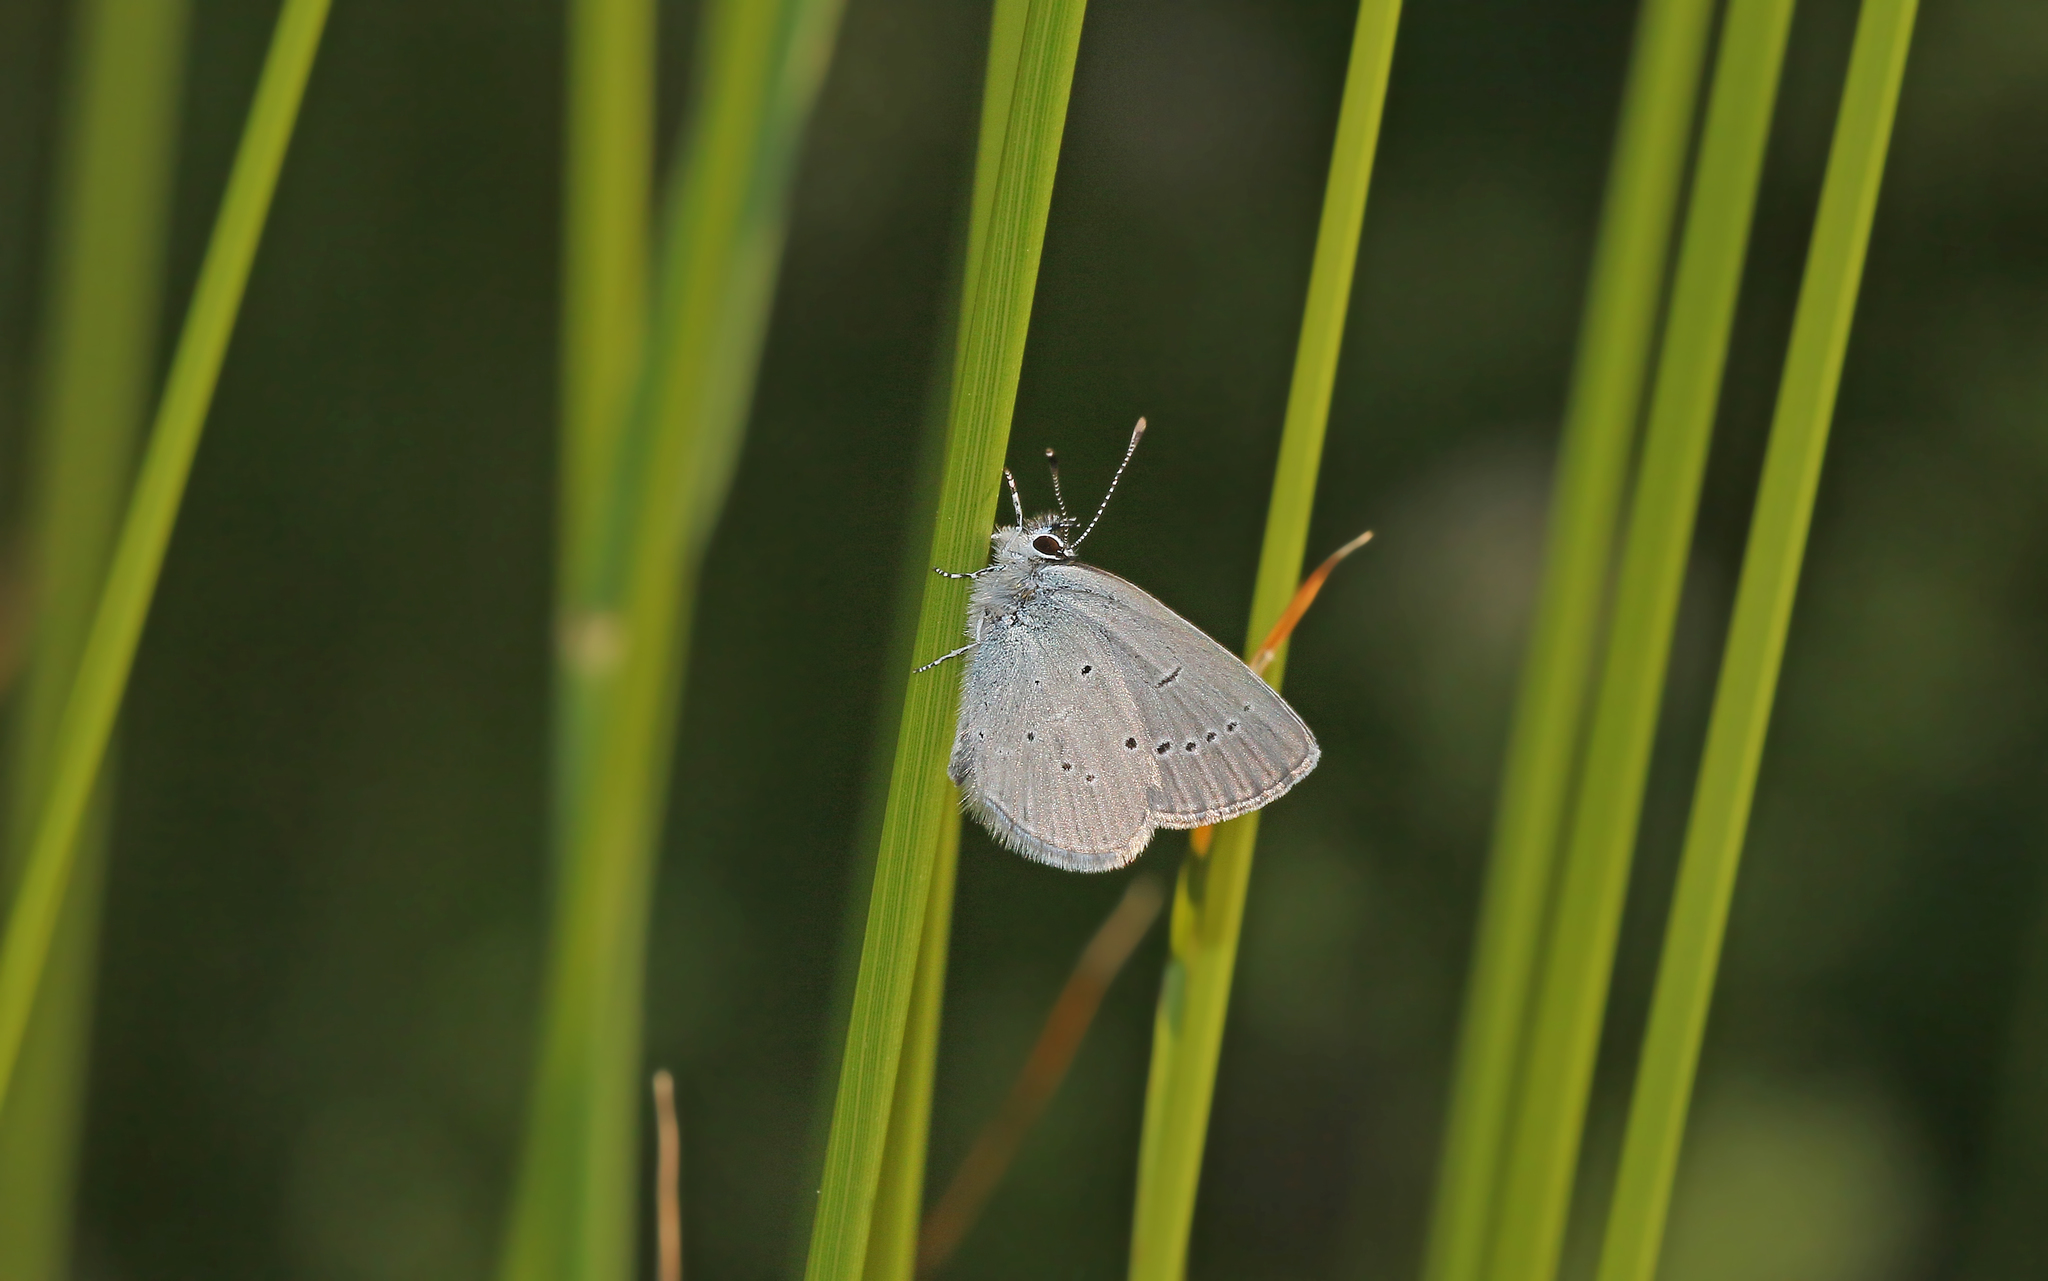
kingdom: Animalia
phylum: Arthropoda
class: Insecta
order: Lepidoptera
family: Lycaenidae
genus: Cupido
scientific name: Cupido minimus
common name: Small blue
